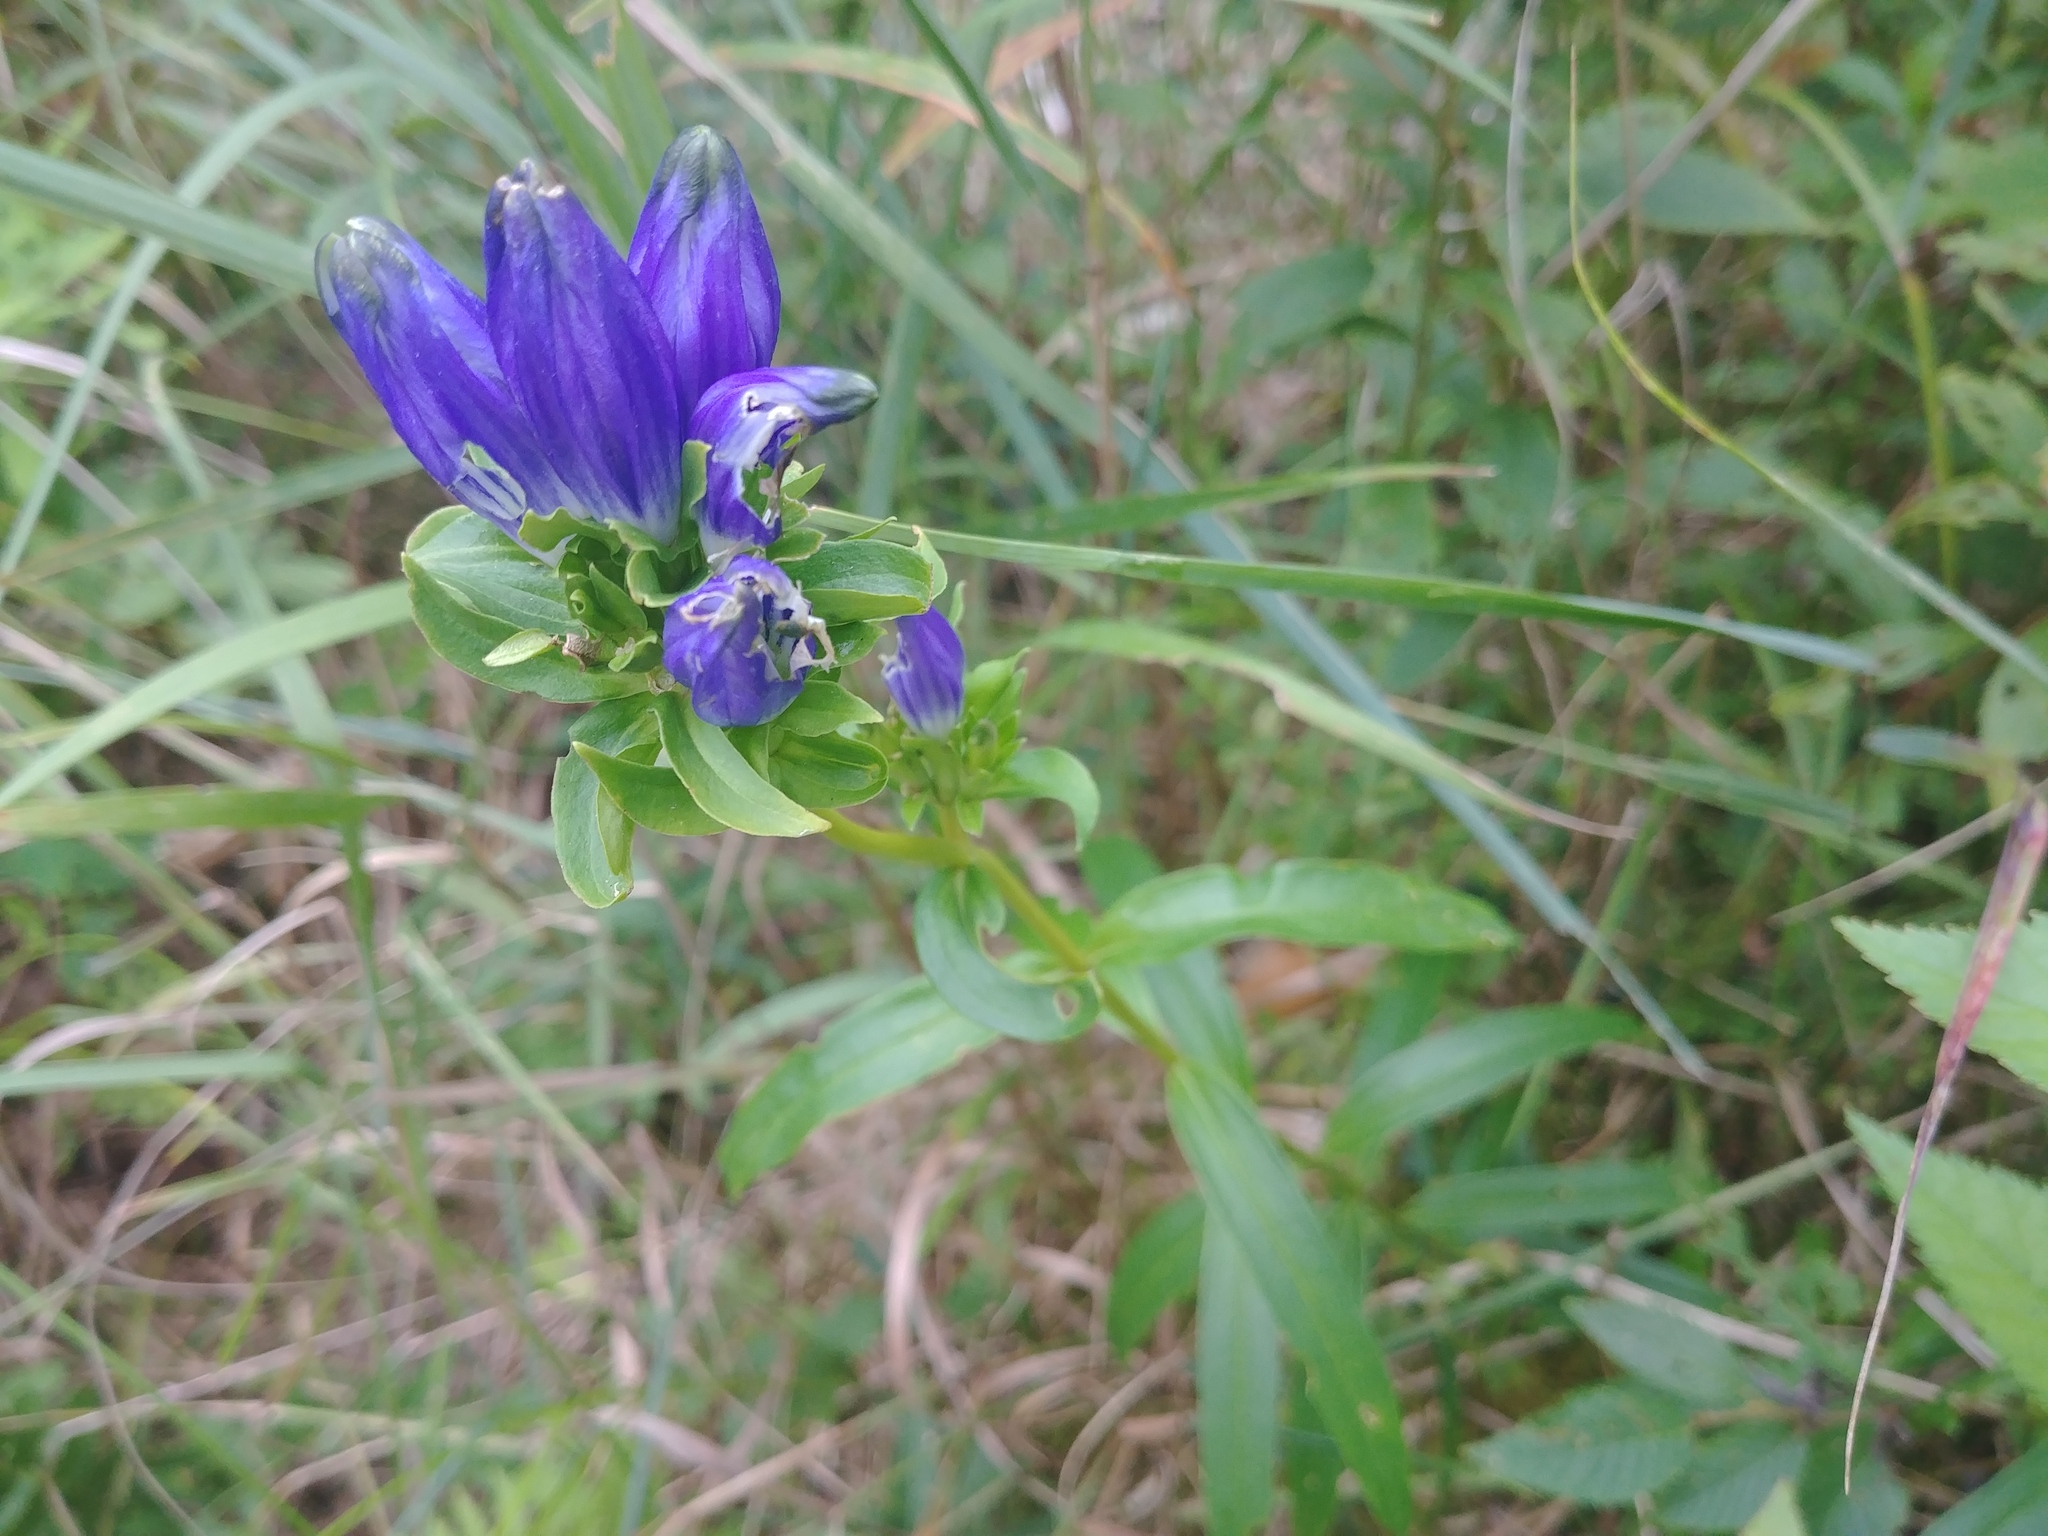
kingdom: Plantae
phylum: Tracheophyta
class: Magnoliopsida
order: Gentianales
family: Gentianaceae
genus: Gentiana
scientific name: Gentiana linearis
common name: Bastard gentian
